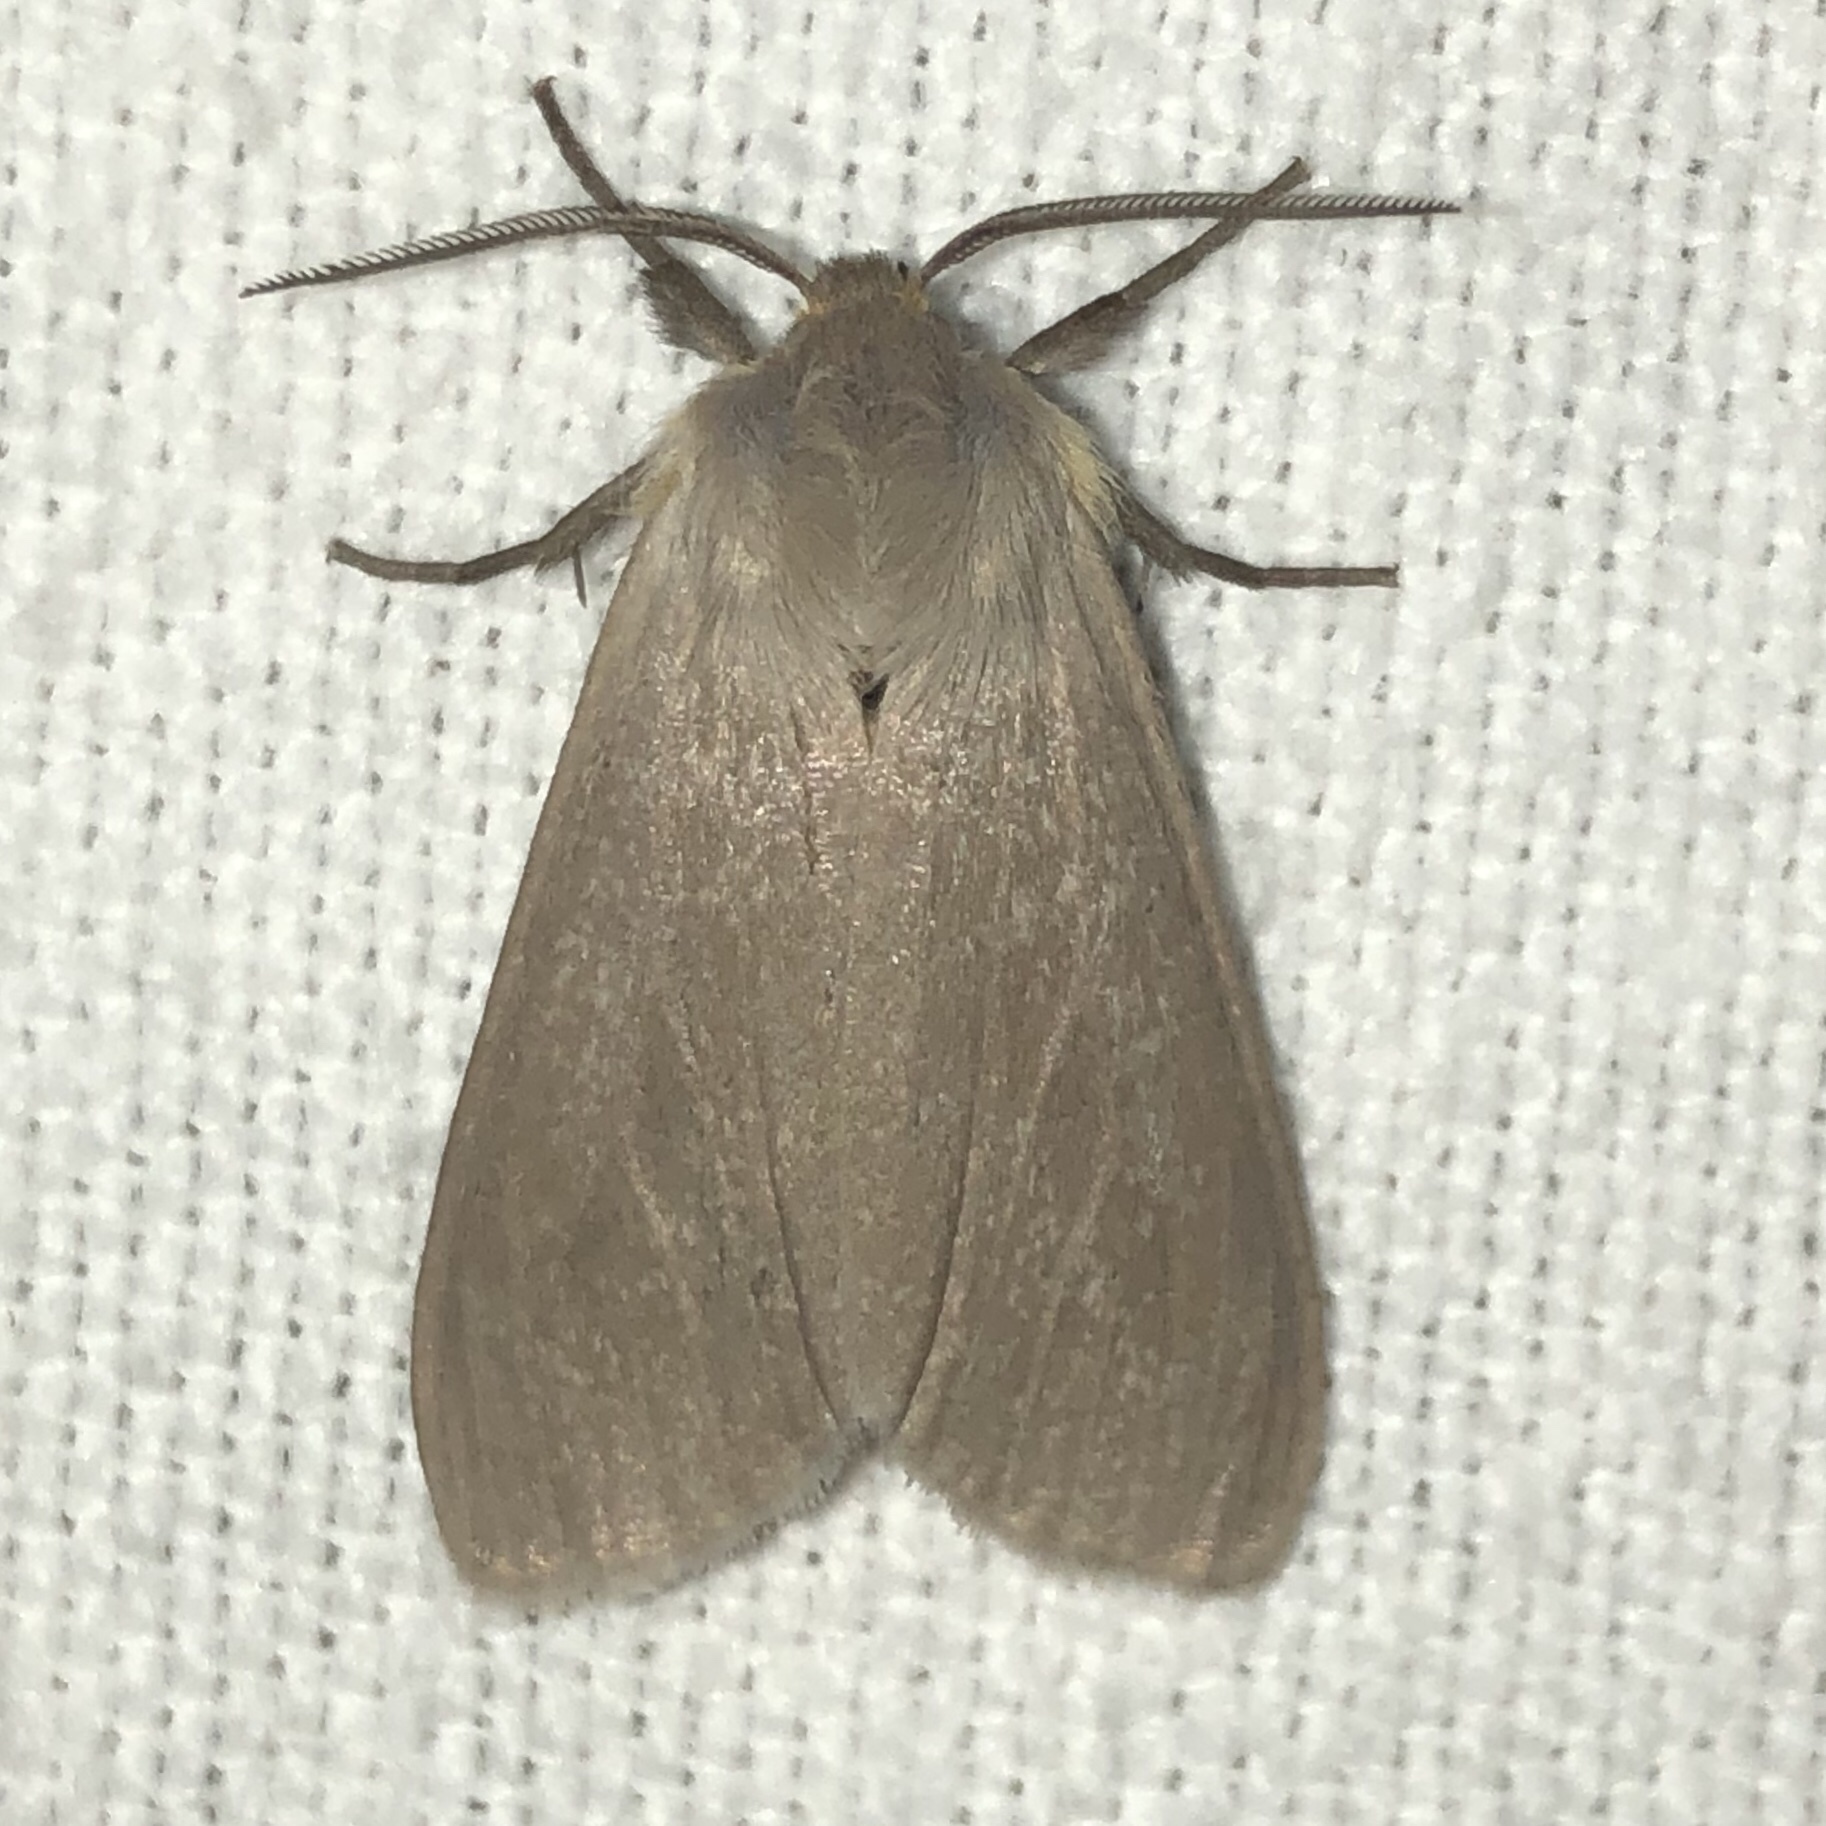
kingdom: Animalia
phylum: Arthropoda
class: Insecta
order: Lepidoptera
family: Erebidae
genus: Euchaetes
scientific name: Euchaetes egle
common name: Milkweed tussock moth
